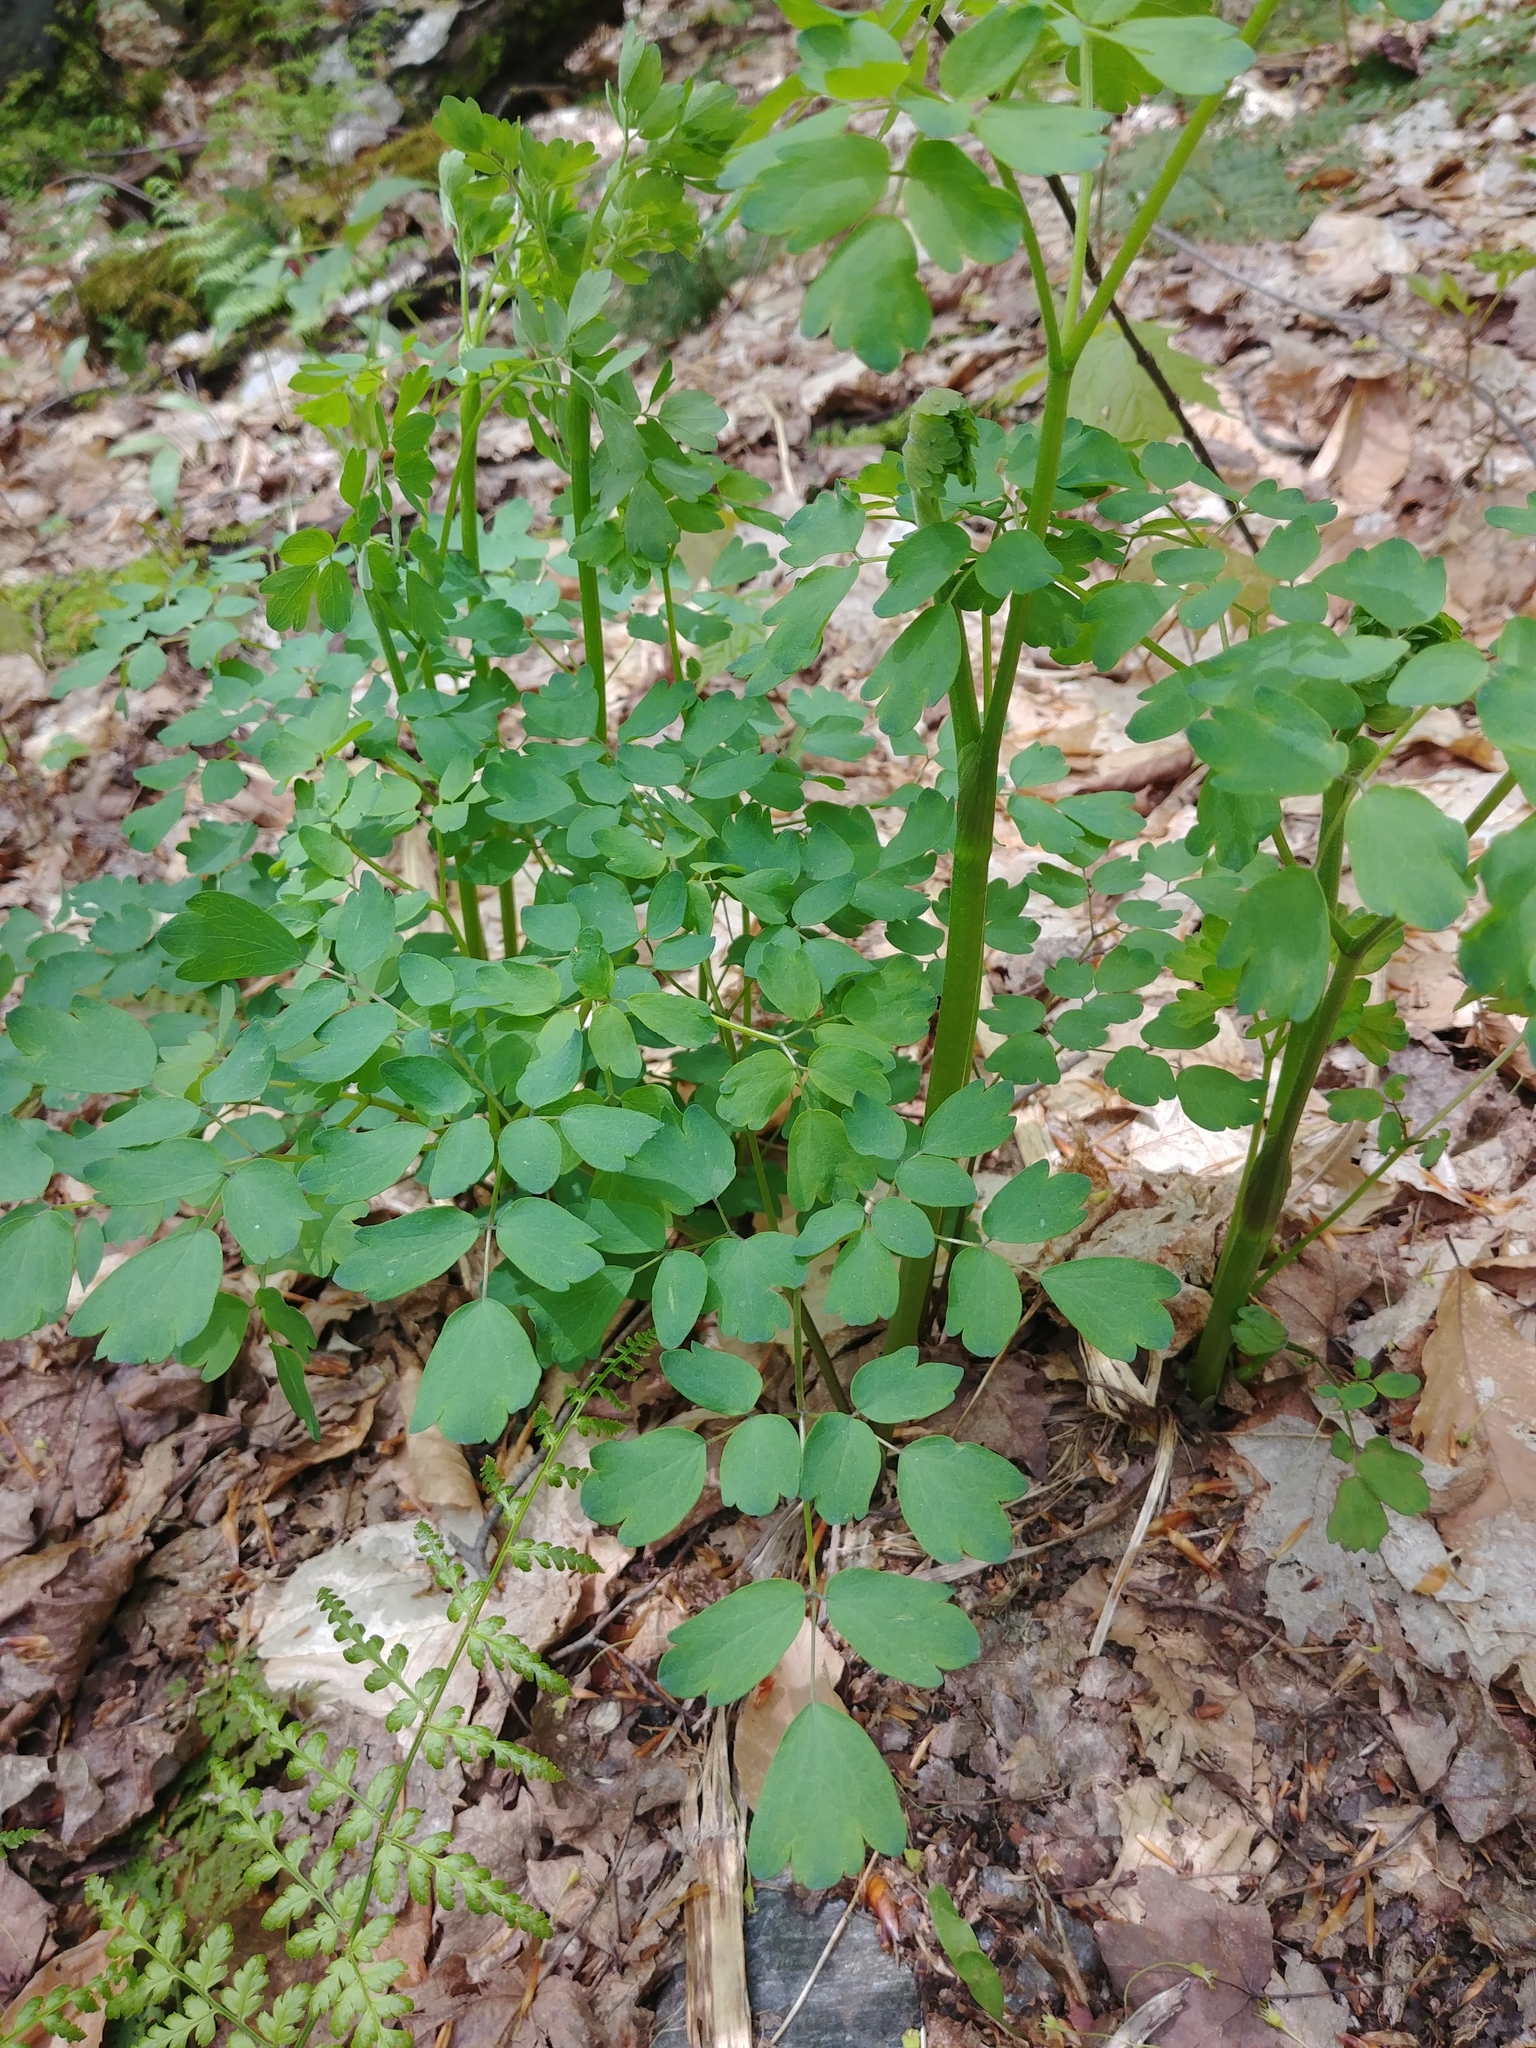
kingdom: Plantae
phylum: Tracheophyta
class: Magnoliopsida
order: Ranunculales
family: Ranunculaceae
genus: Thalictrum
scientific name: Thalictrum pubescens
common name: King-of-the-meadow
